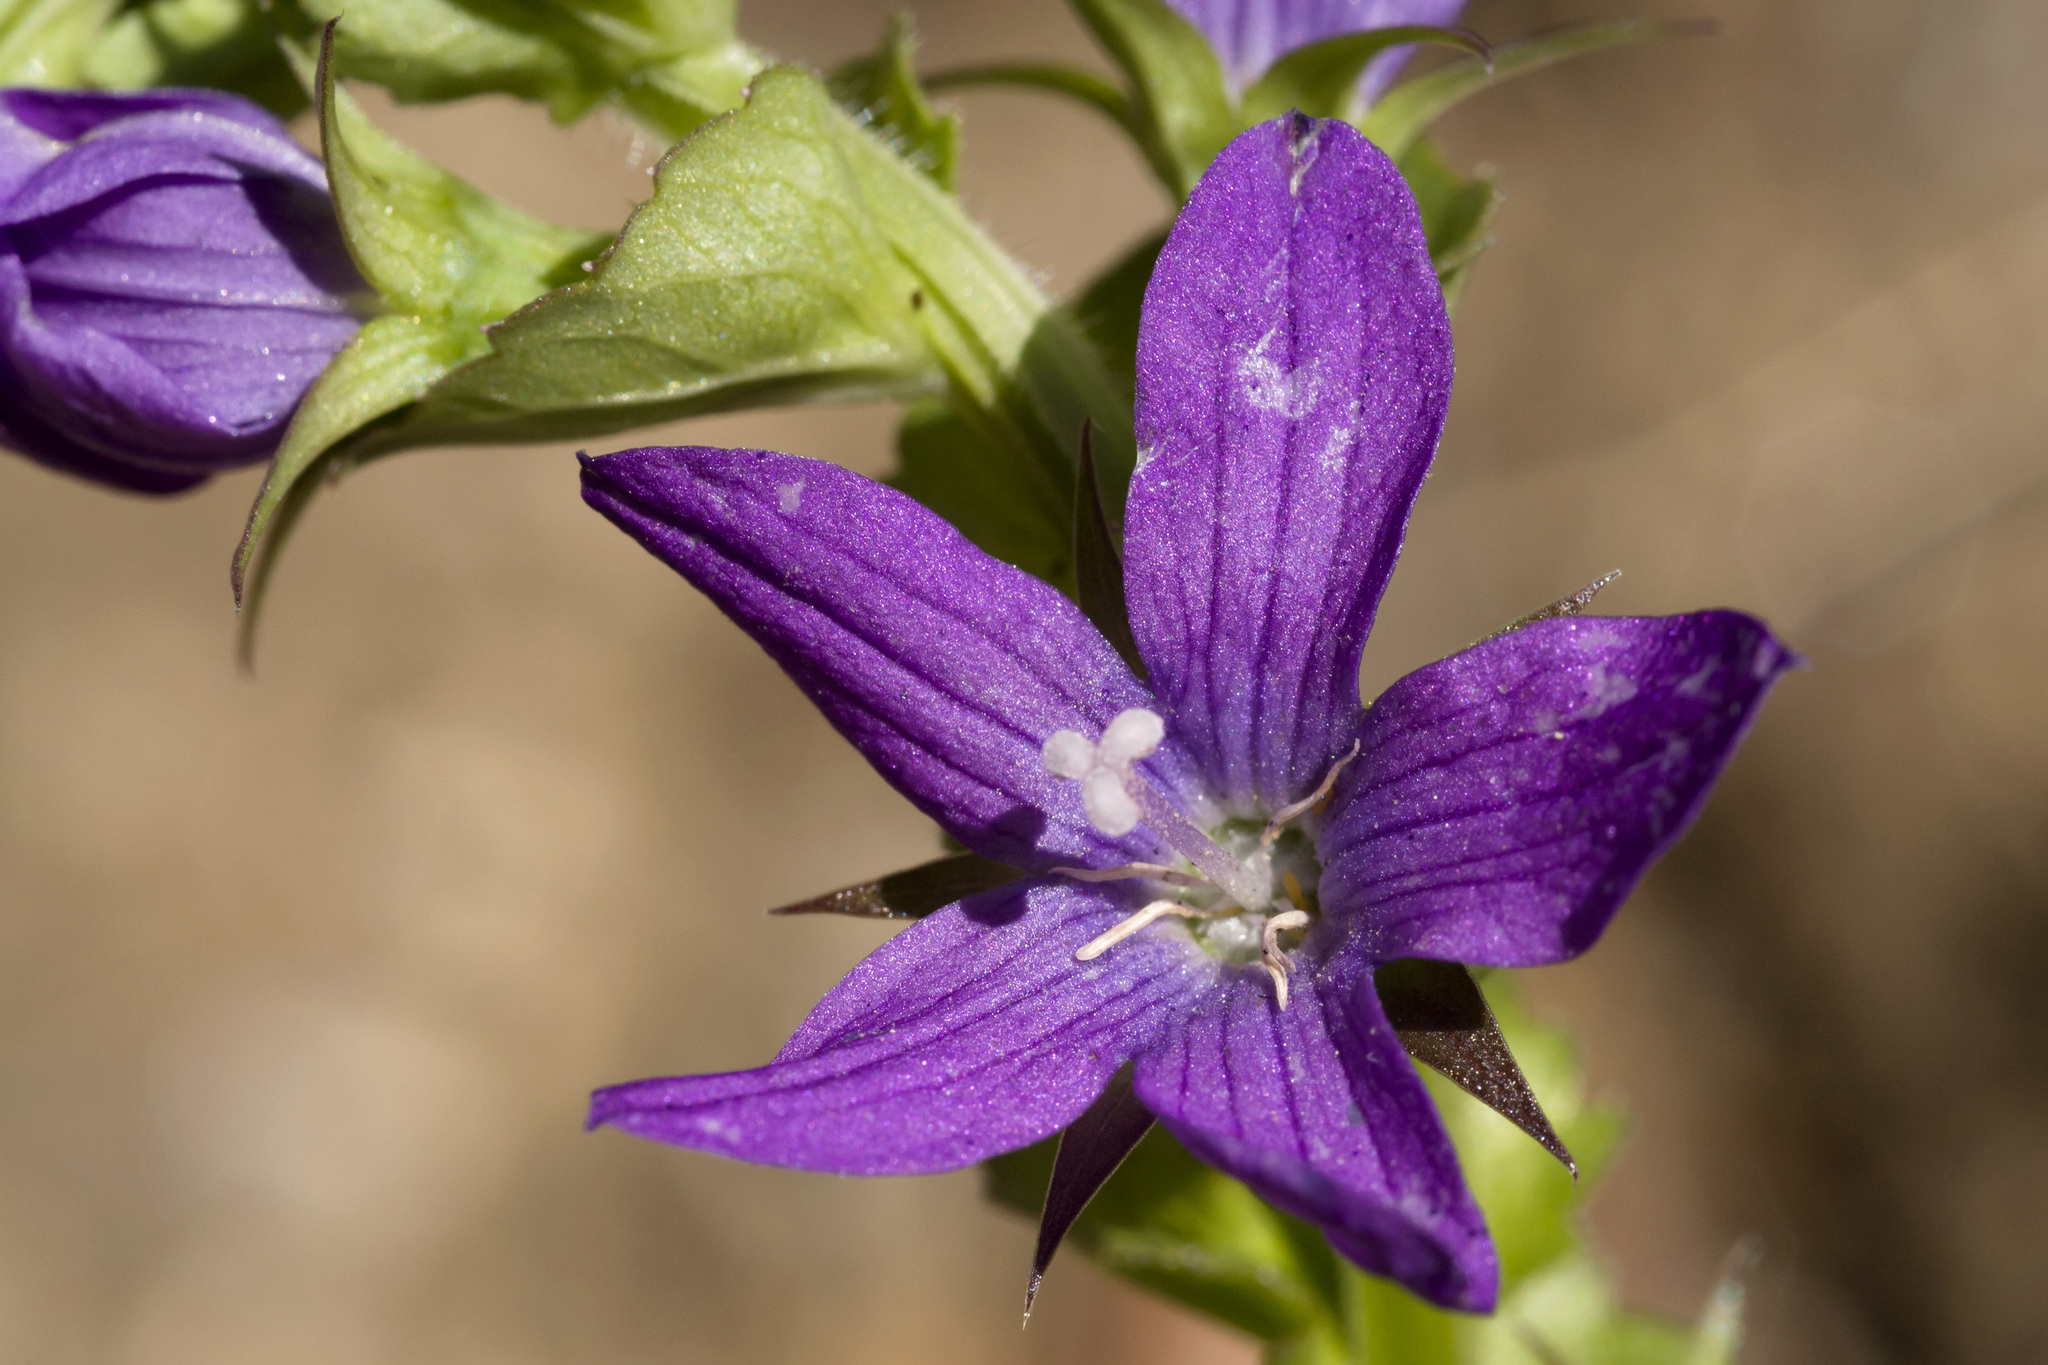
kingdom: Plantae
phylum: Tracheophyta
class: Magnoliopsida
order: Asterales
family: Campanulaceae
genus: Triodanis
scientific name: Triodanis perfoliata
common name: Clasping venus' looking-glass
